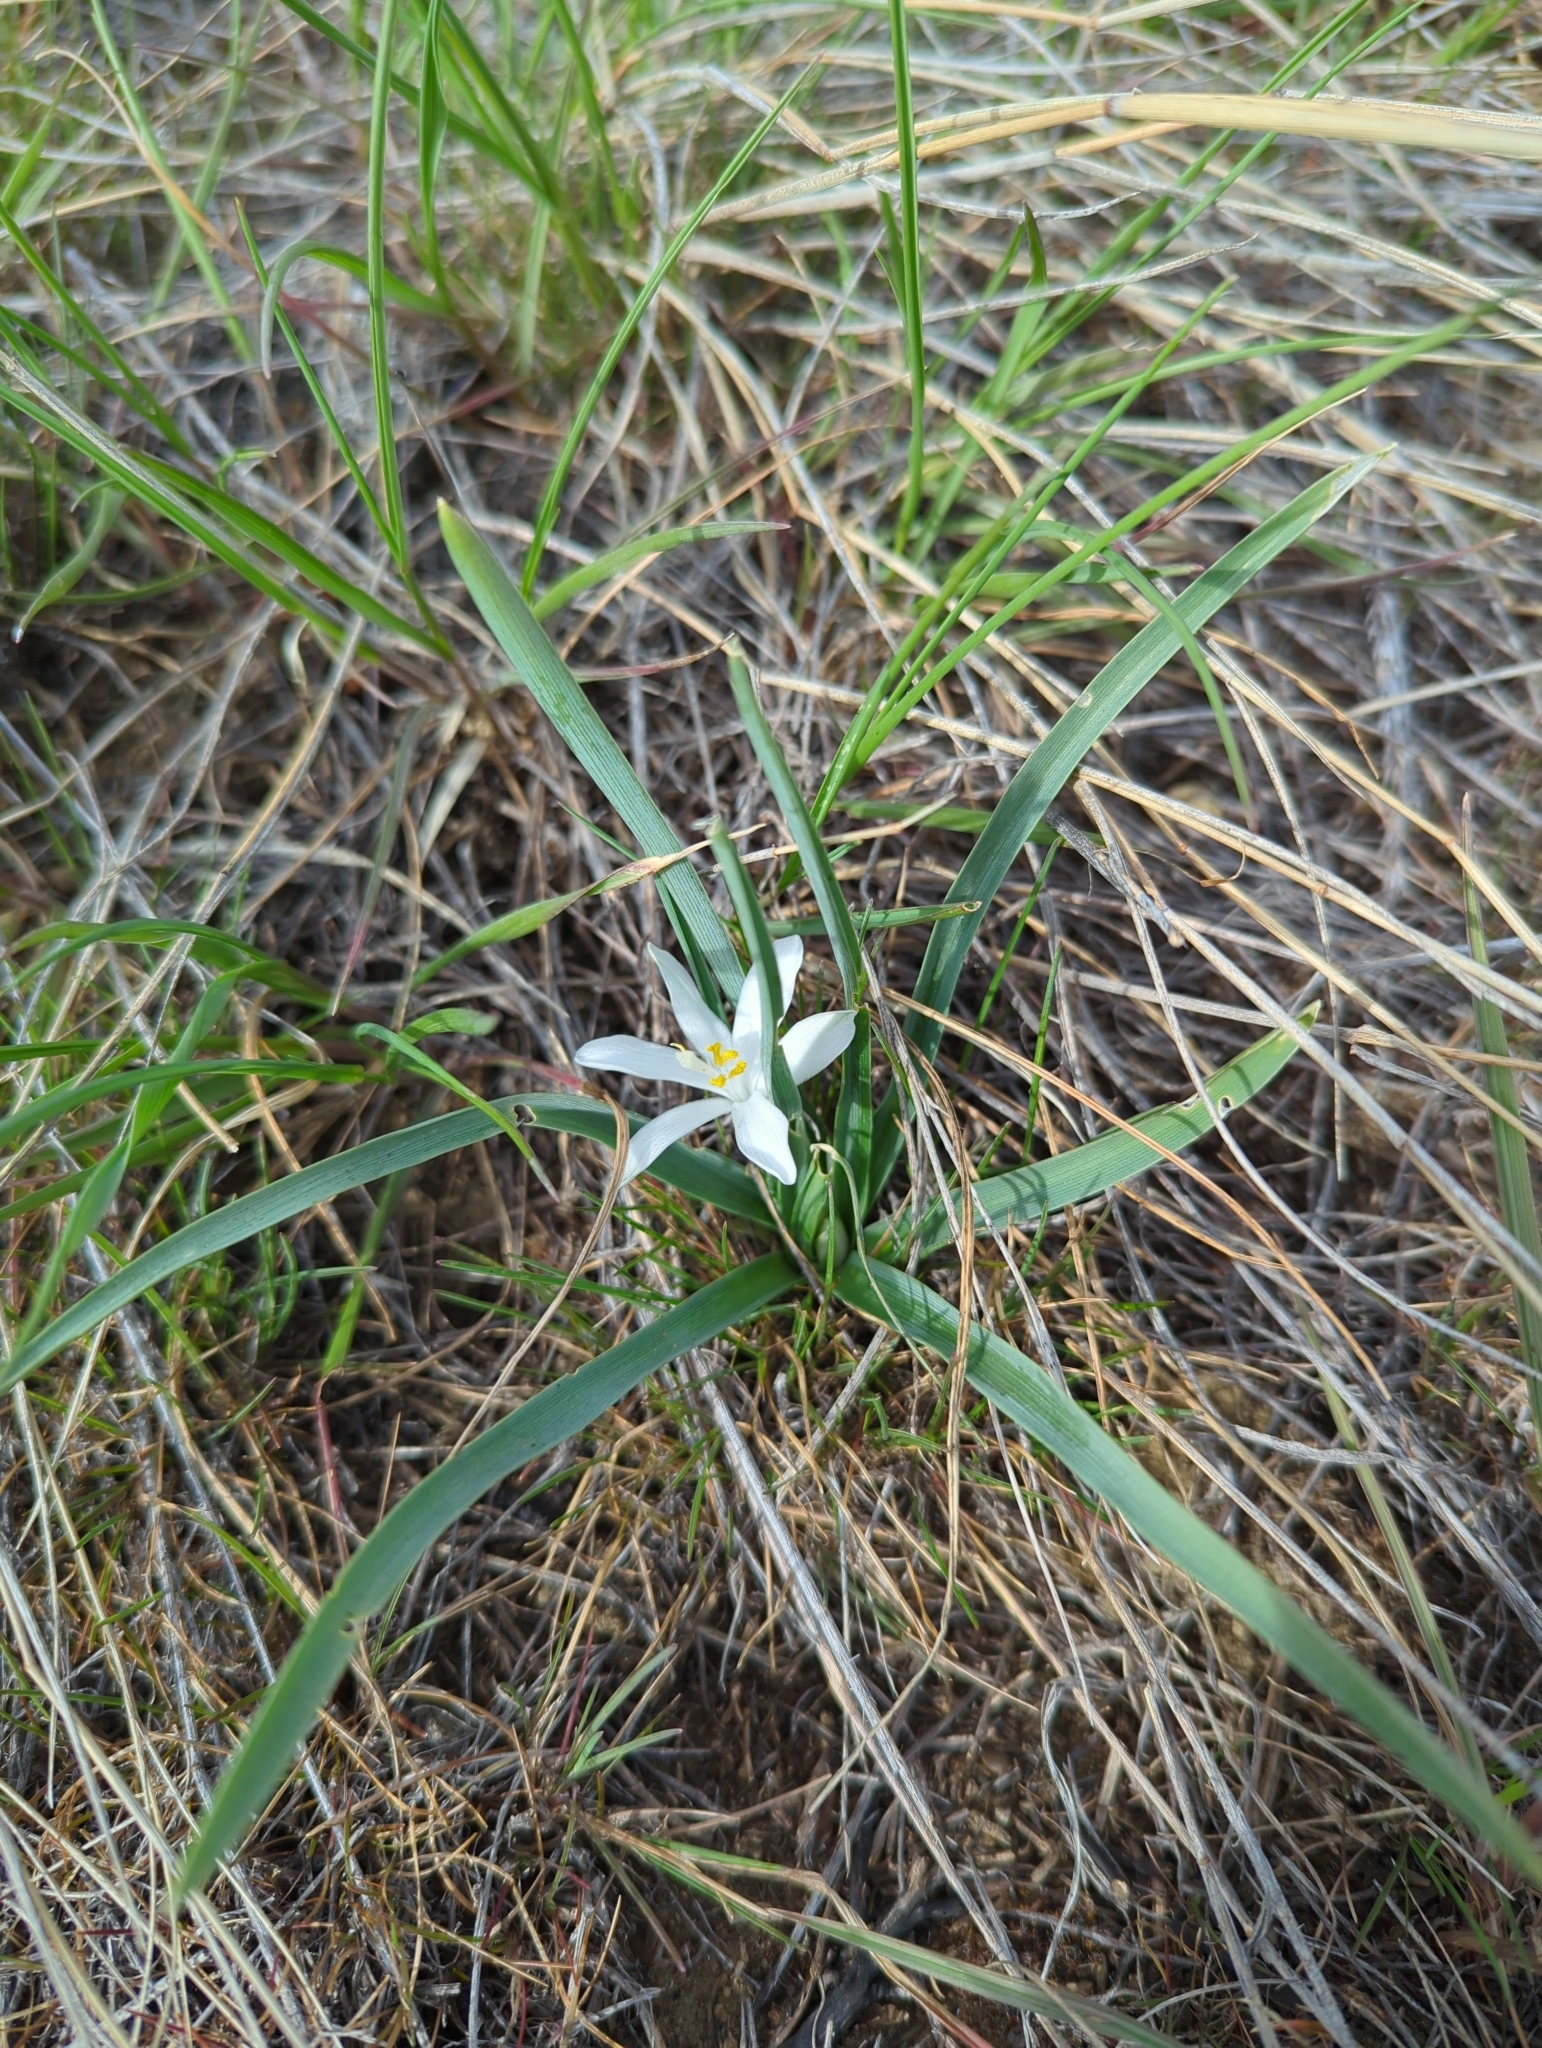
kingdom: Plantae
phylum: Tracheophyta
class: Liliopsida
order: Asparagales
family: Asparagaceae
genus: Leucocrinum
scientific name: Leucocrinum montanum
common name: Mountain-lily
